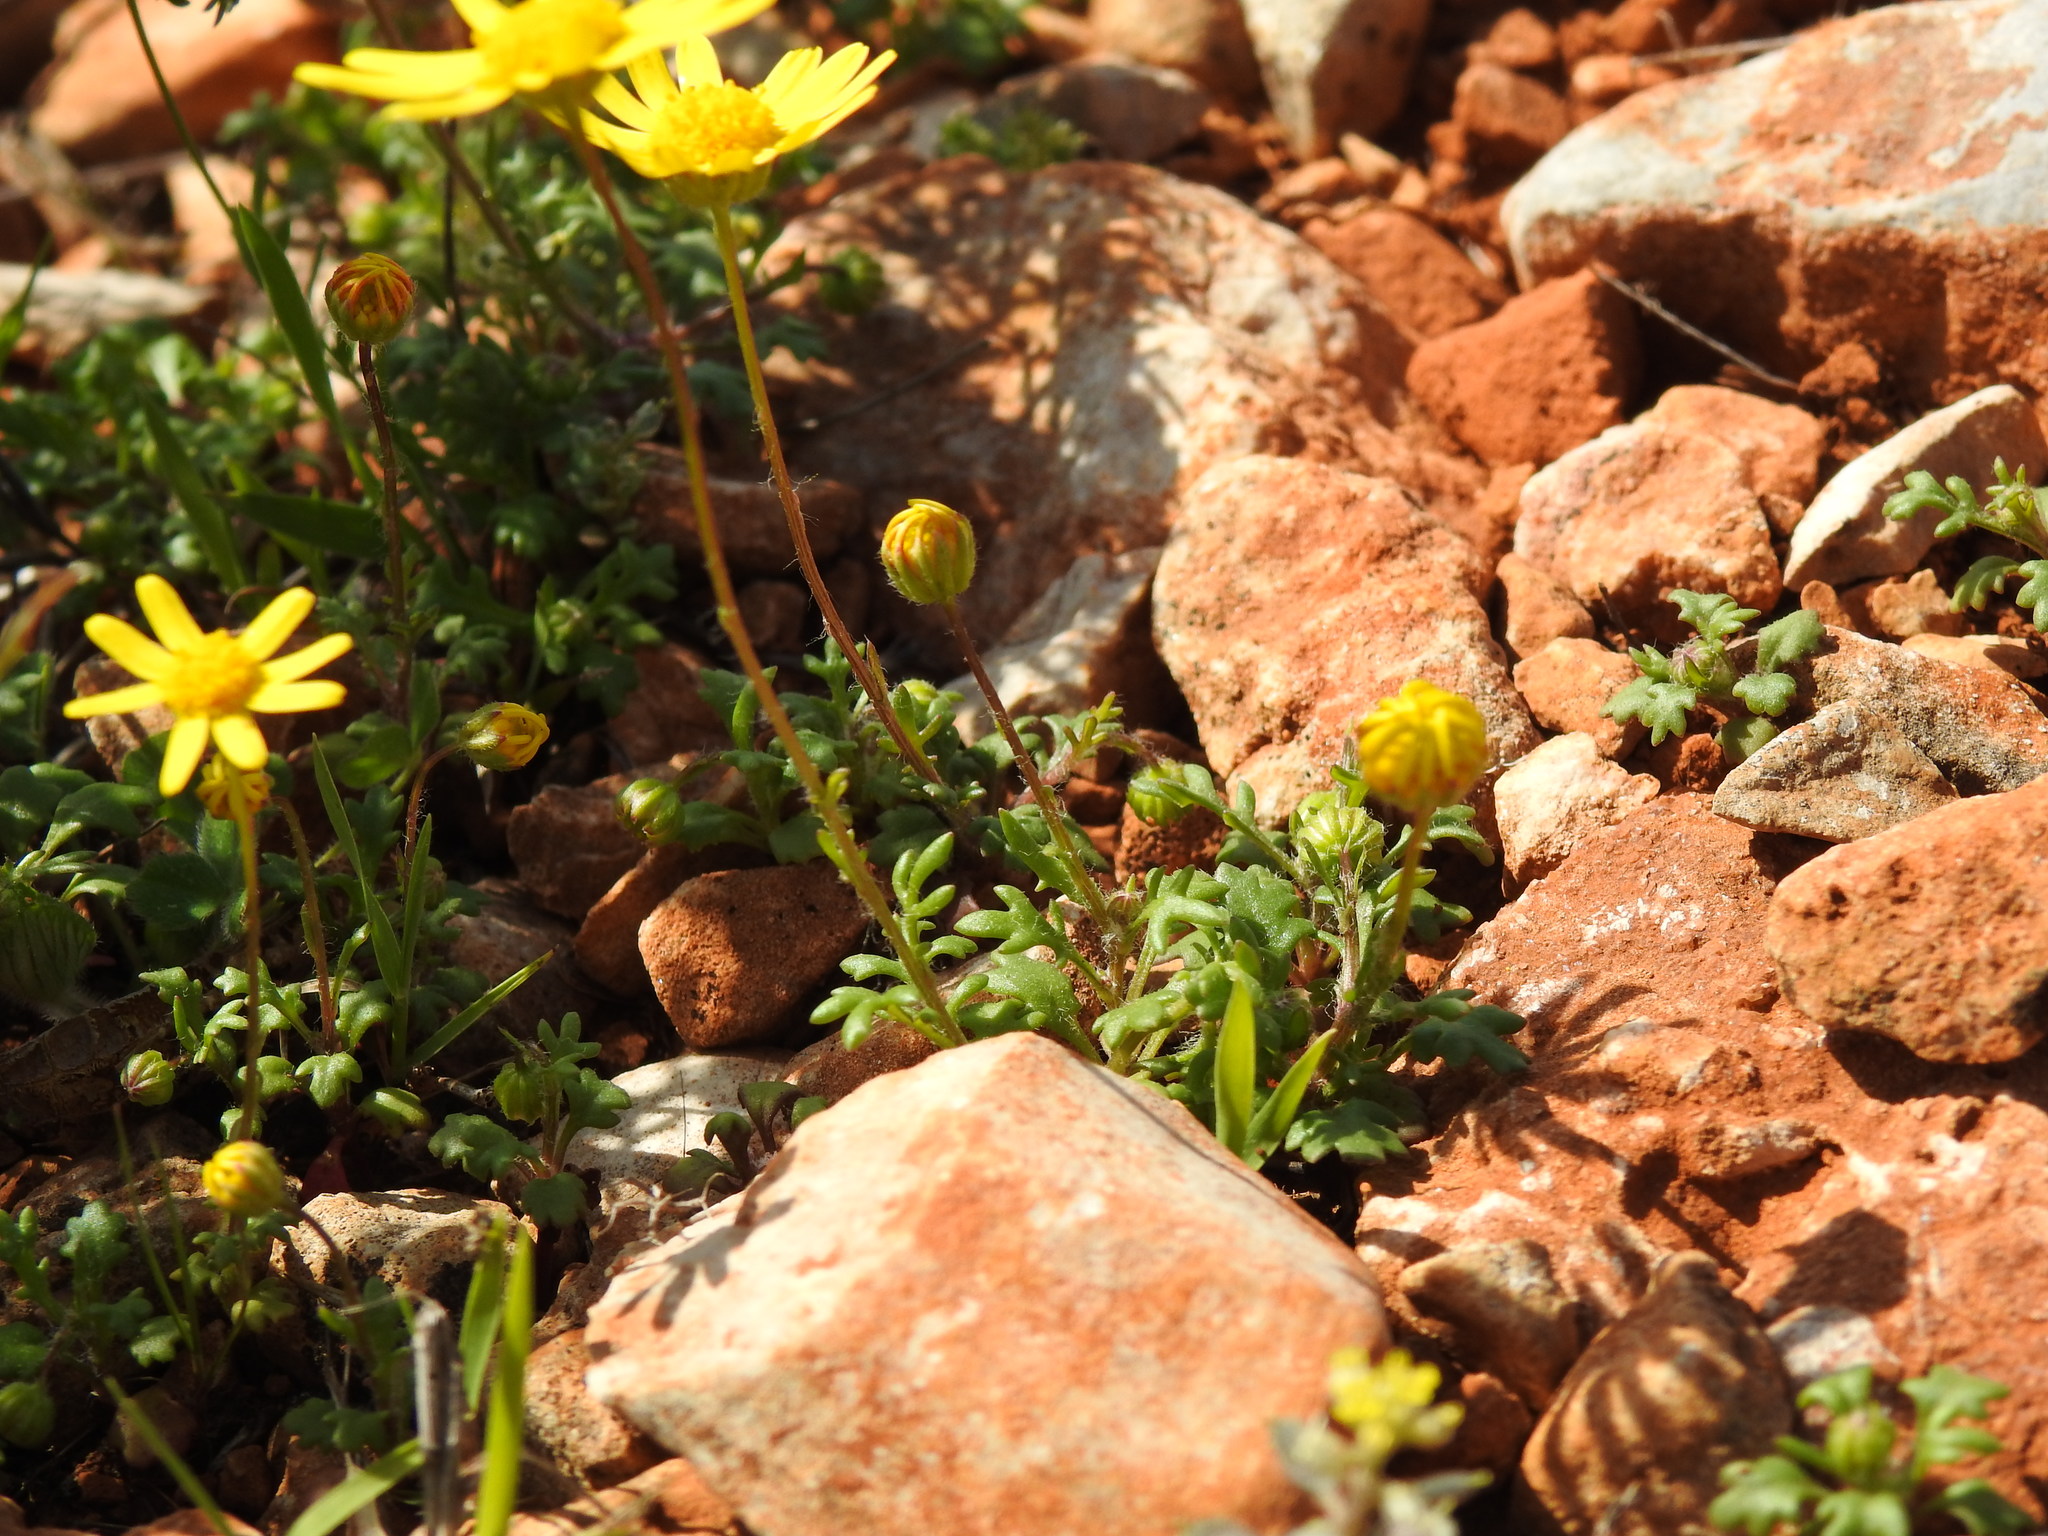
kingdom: Plantae
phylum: Tracheophyta
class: Magnoliopsida
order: Asterales
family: Asteraceae
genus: Jacobaea
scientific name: Jacobaea minuta
